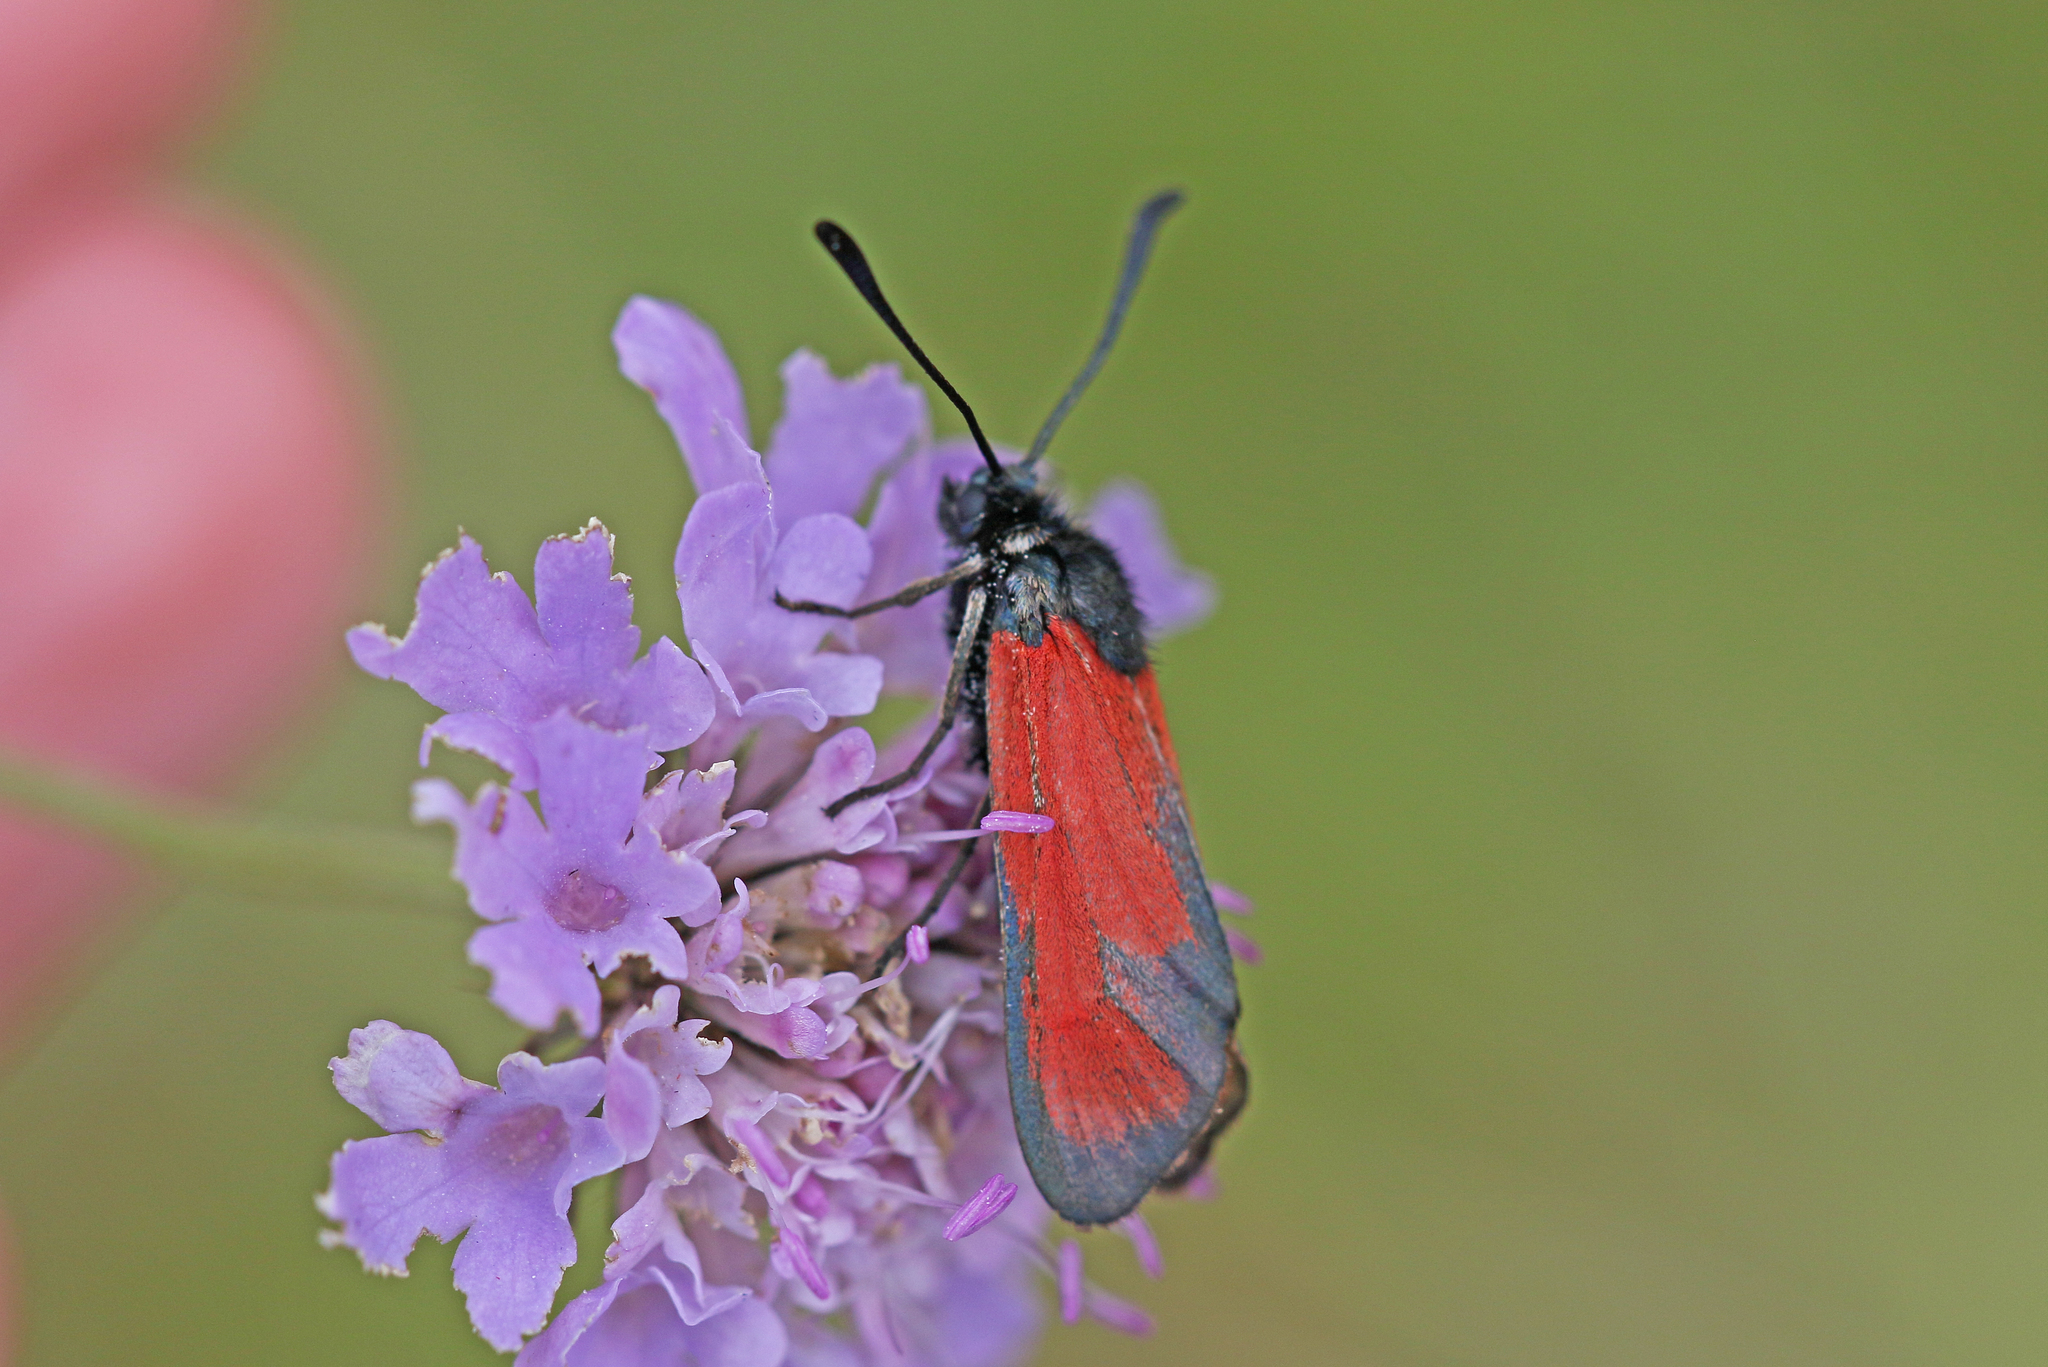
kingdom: Animalia
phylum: Arthropoda
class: Insecta
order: Lepidoptera
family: Zygaenidae
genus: Zygaena
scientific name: Zygaena erythrus
